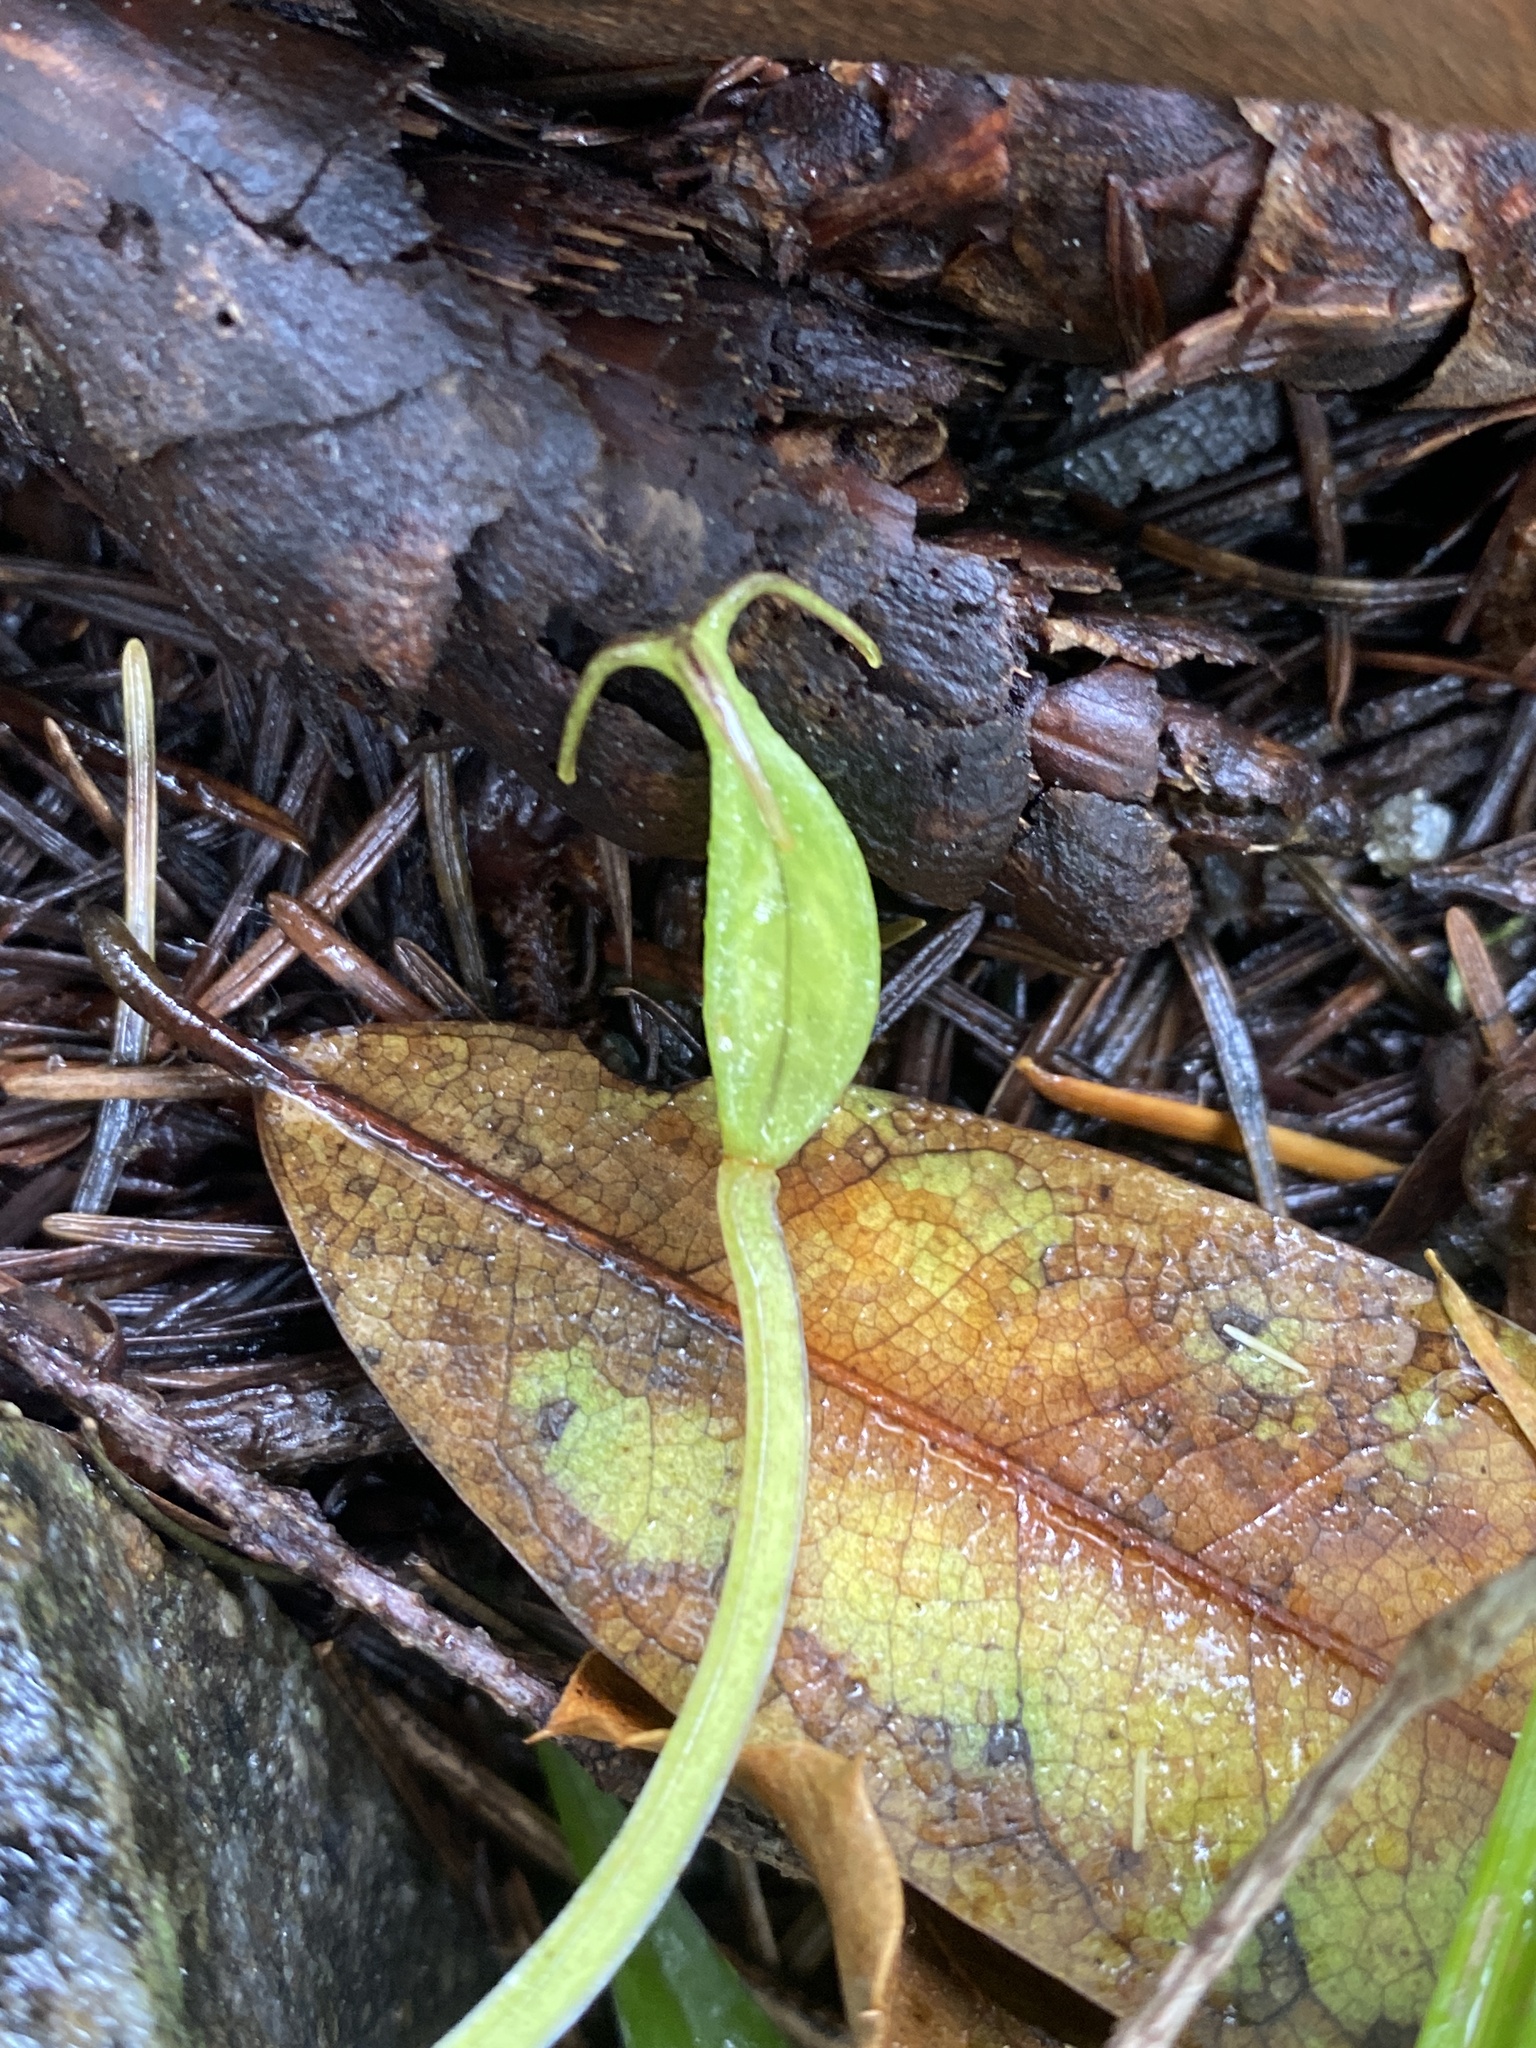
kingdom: Plantae
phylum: Tracheophyta
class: Liliopsida
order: Liliales
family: Liliaceae
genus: Scoliopus
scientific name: Scoliopus bigelovii
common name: Foetid adder's-tongue
